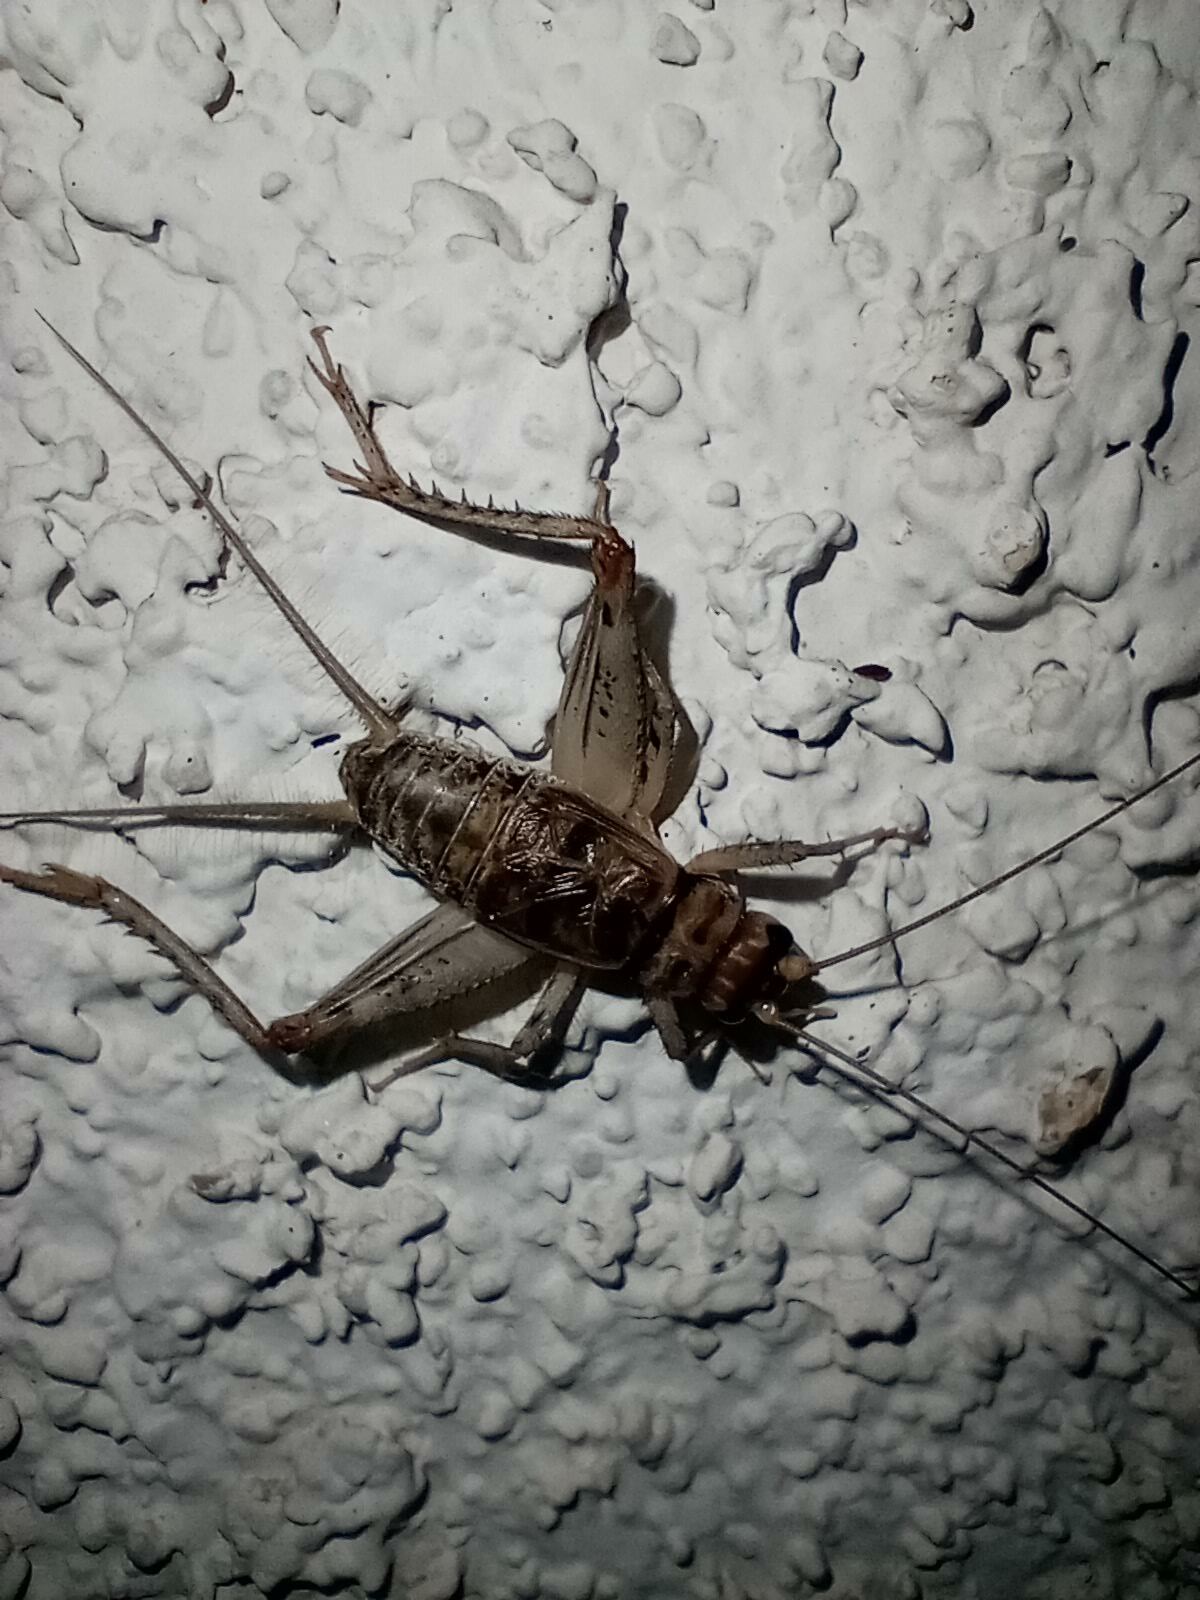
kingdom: Animalia
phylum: Arthropoda
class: Insecta
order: Orthoptera
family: Gryllidae
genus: Gryllodes
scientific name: Gryllodes sigillatus
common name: Tropical house cricket
